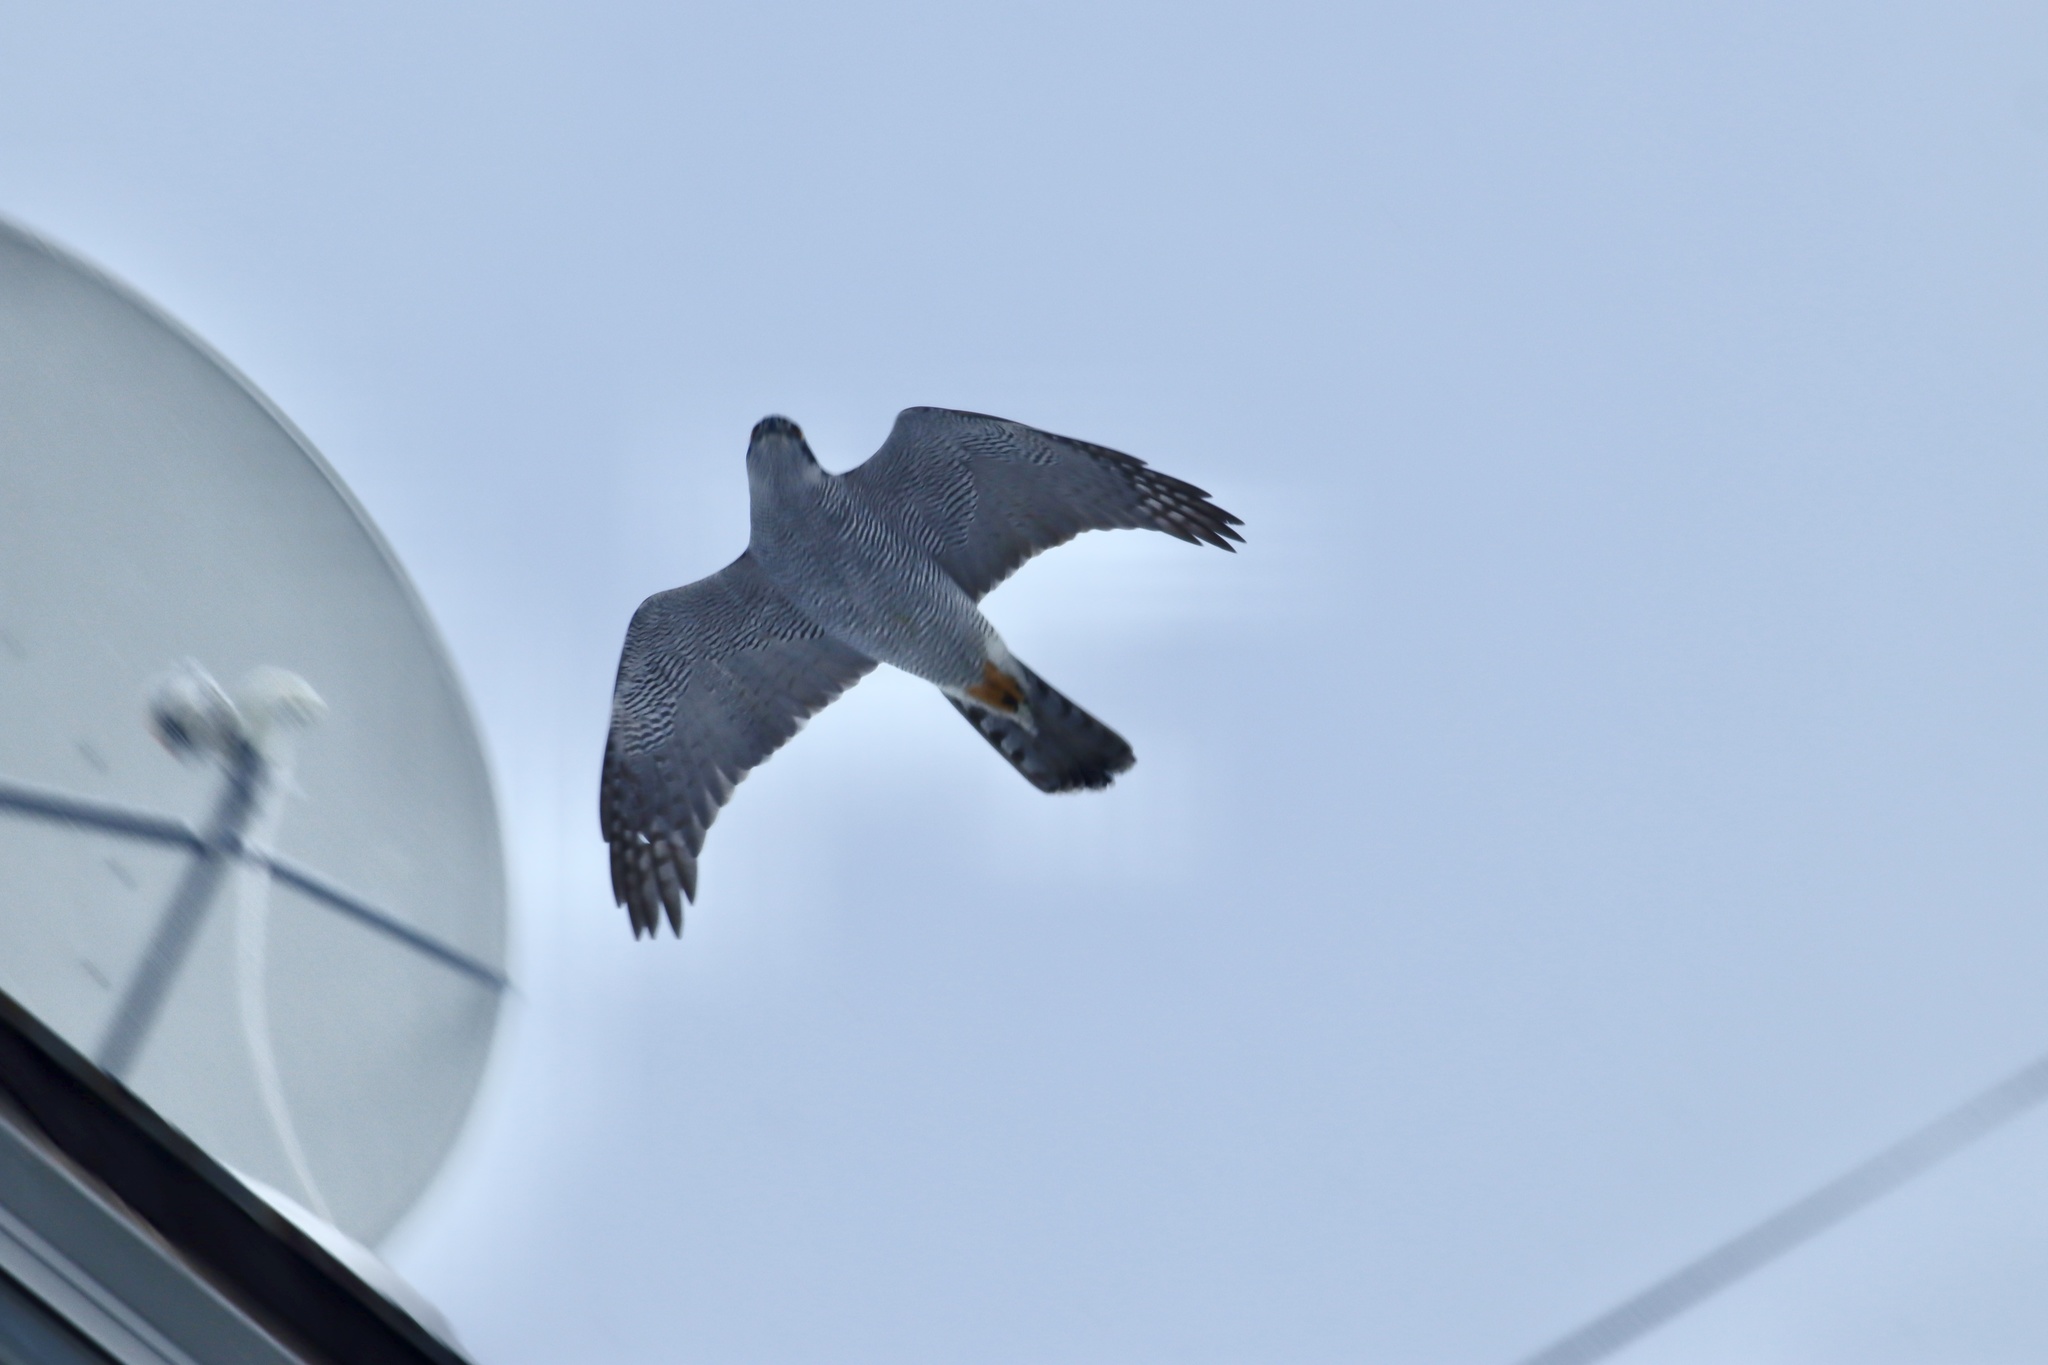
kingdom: Animalia
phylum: Chordata
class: Aves
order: Accipitriformes
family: Accipitridae
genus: Accipiter
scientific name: Accipiter gentilis
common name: Northern goshawk
